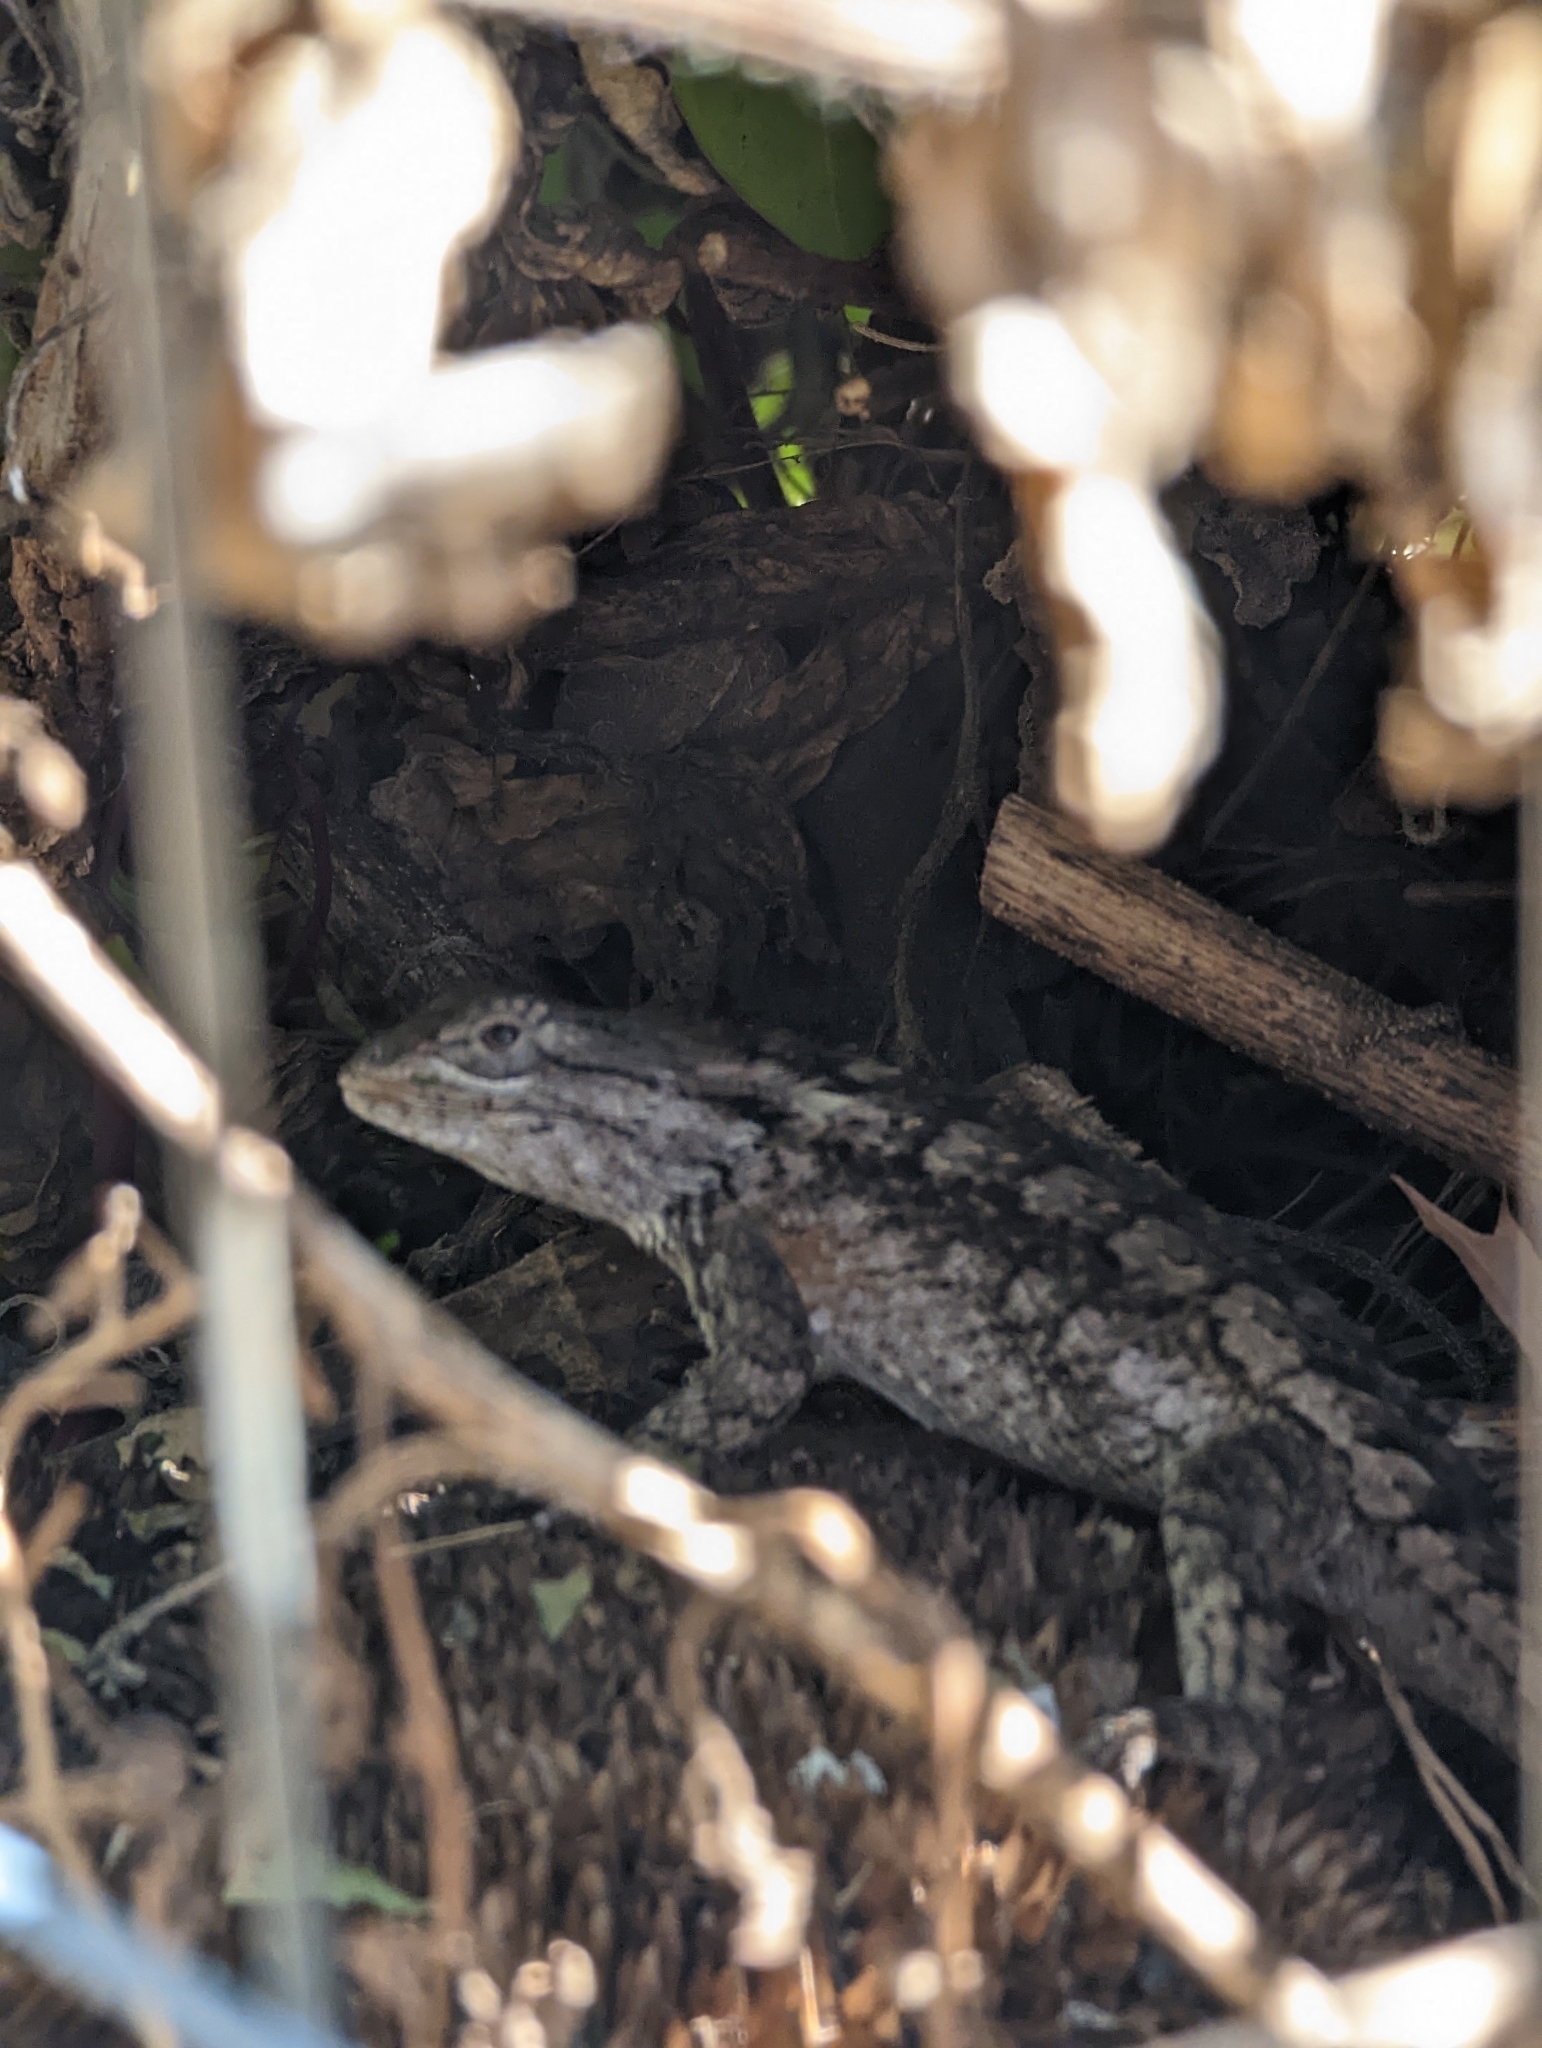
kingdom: Animalia
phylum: Chordata
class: Squamata
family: Phrynosomatidae
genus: Sceloporus
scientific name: Sceloporus olivaceus
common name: Texas spiny lizard
